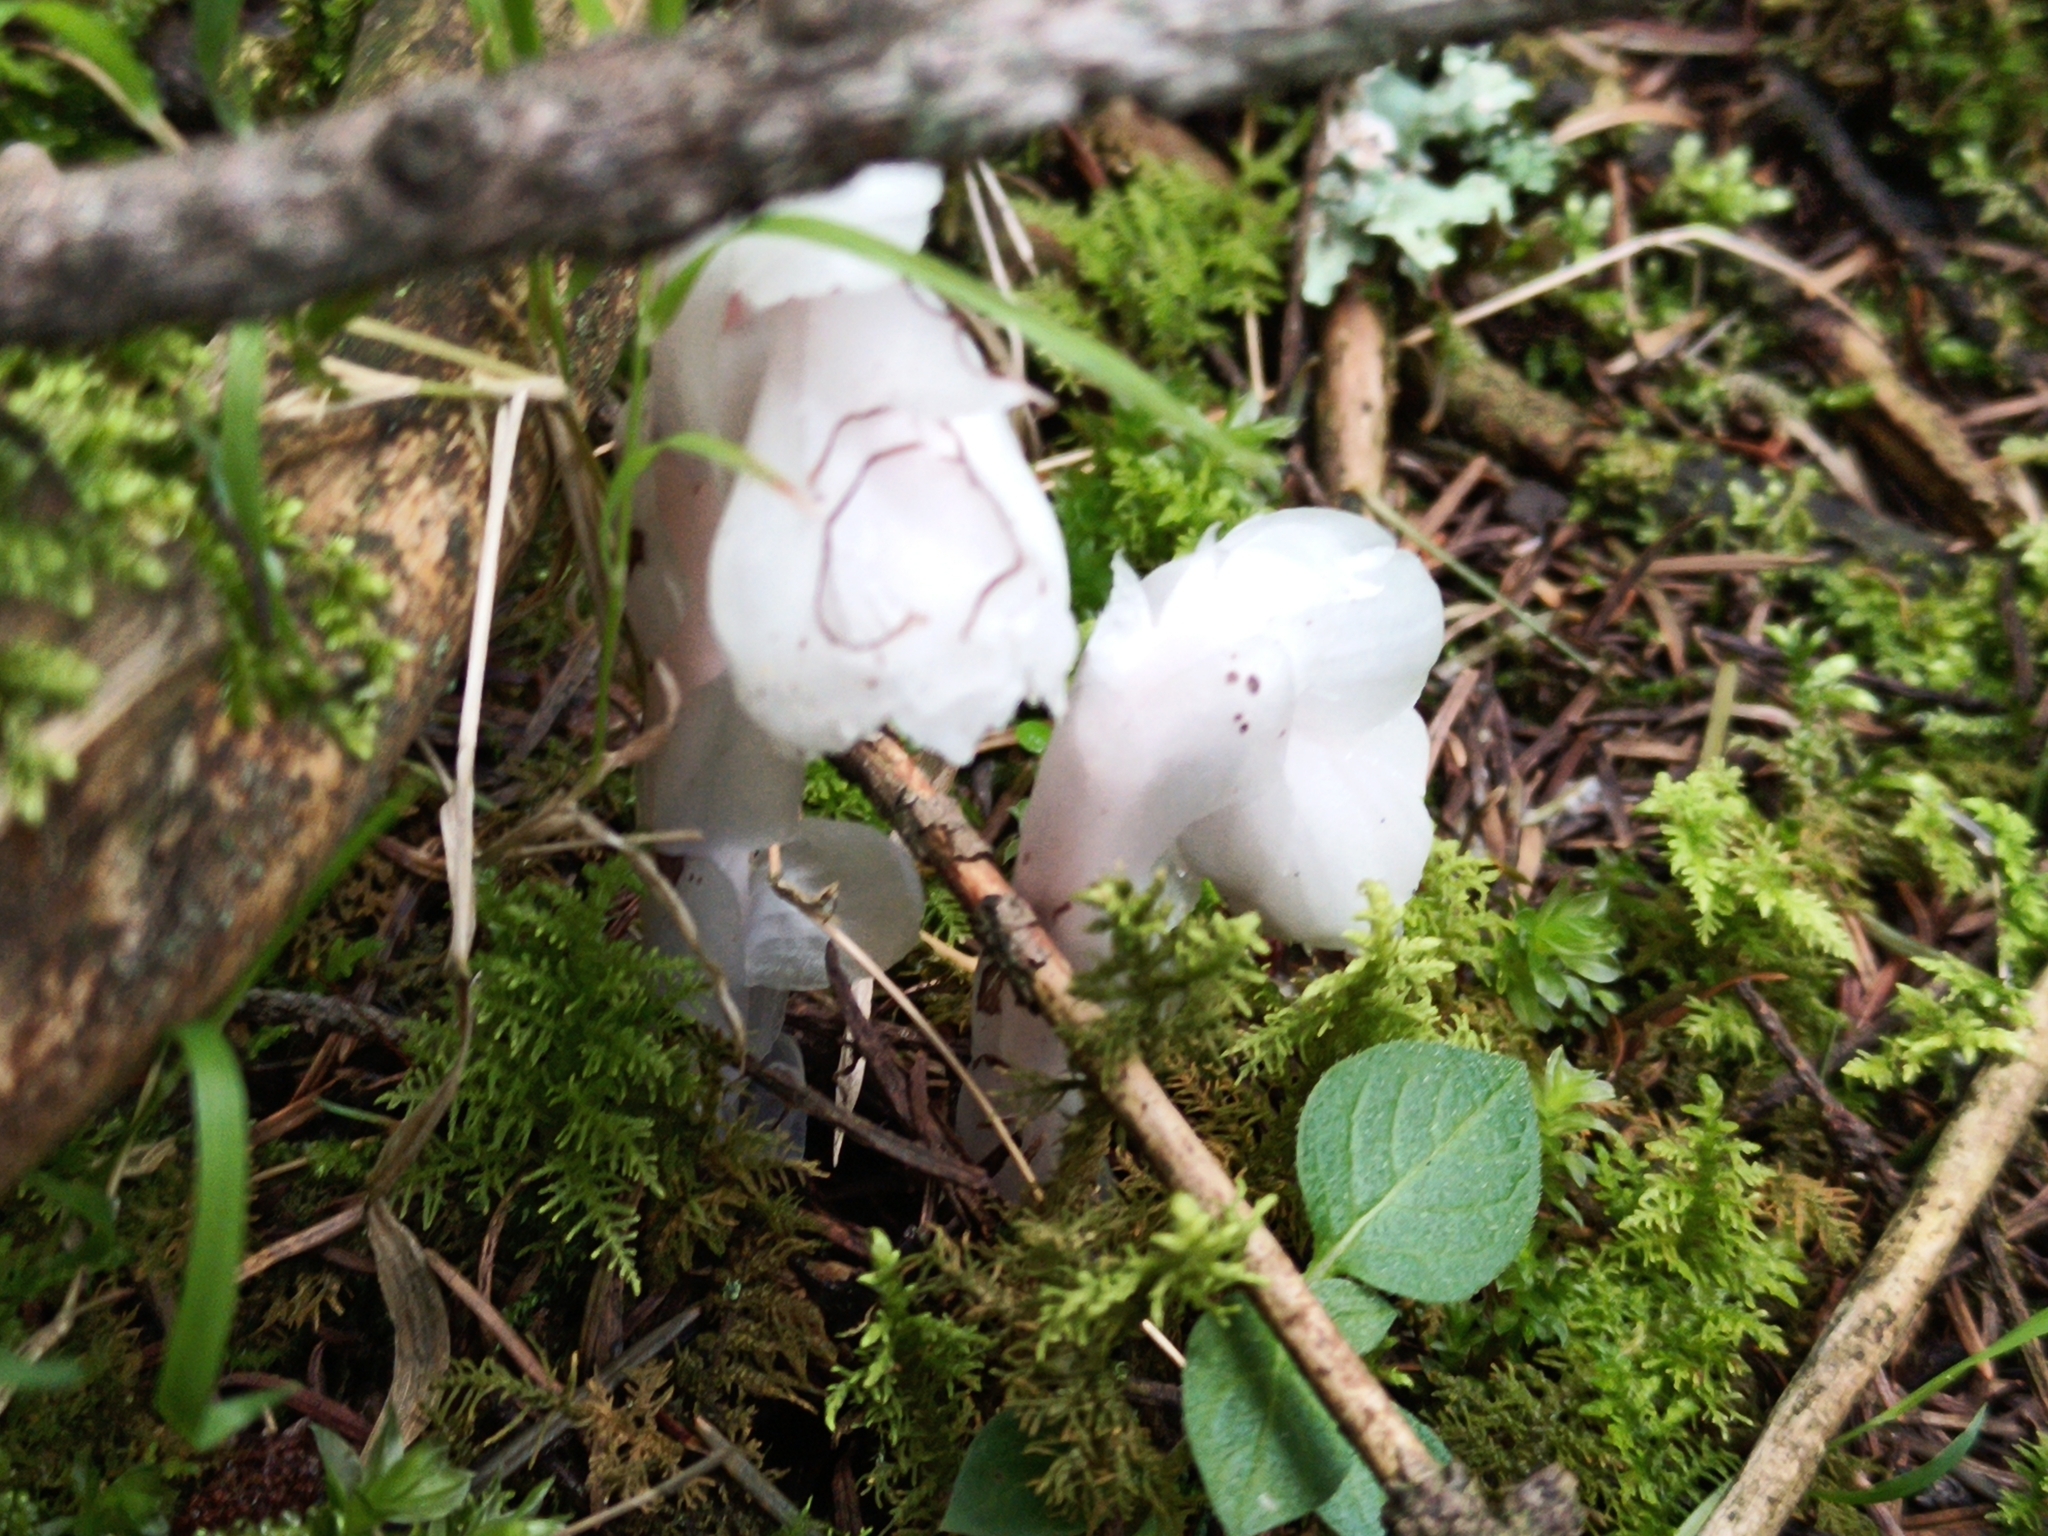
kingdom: Plantae
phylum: Tracheophyta
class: Magnoliopsida
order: Ericales
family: Ericaceae
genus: Monotropa
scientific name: Monotropa uniflora
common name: Convulsion root
